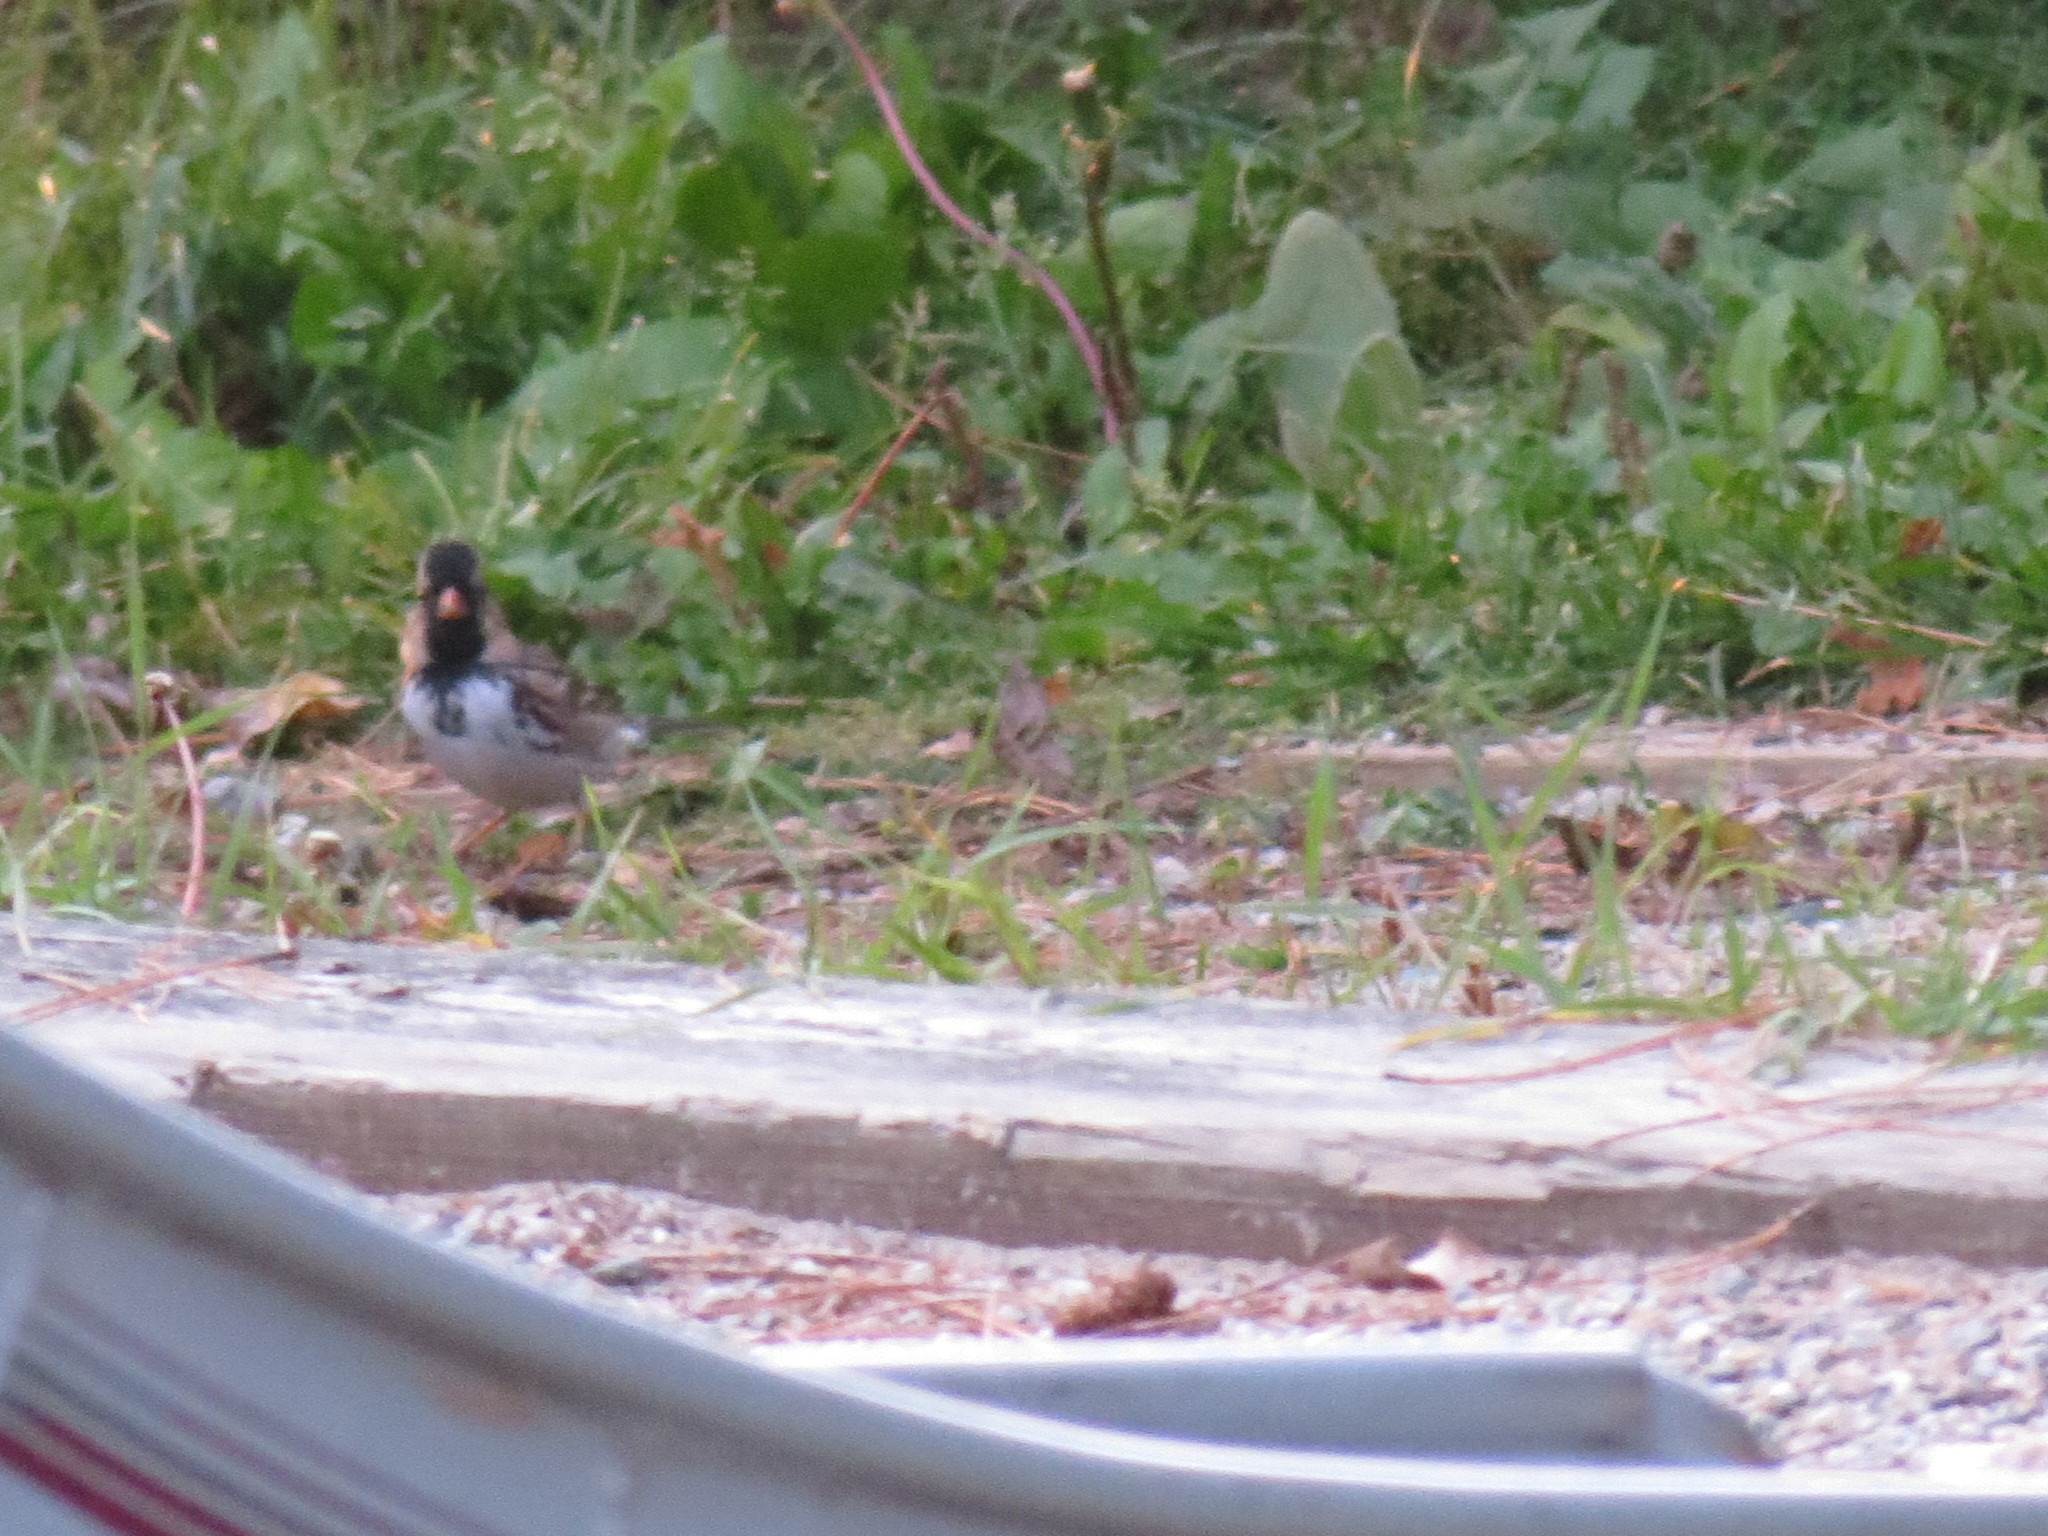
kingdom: Animalia
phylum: Chordata
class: Aves
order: Passeriformes
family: Passerellidae
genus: Zonotrichia
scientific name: Zonotrichia querula
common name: Harris's sparrow
